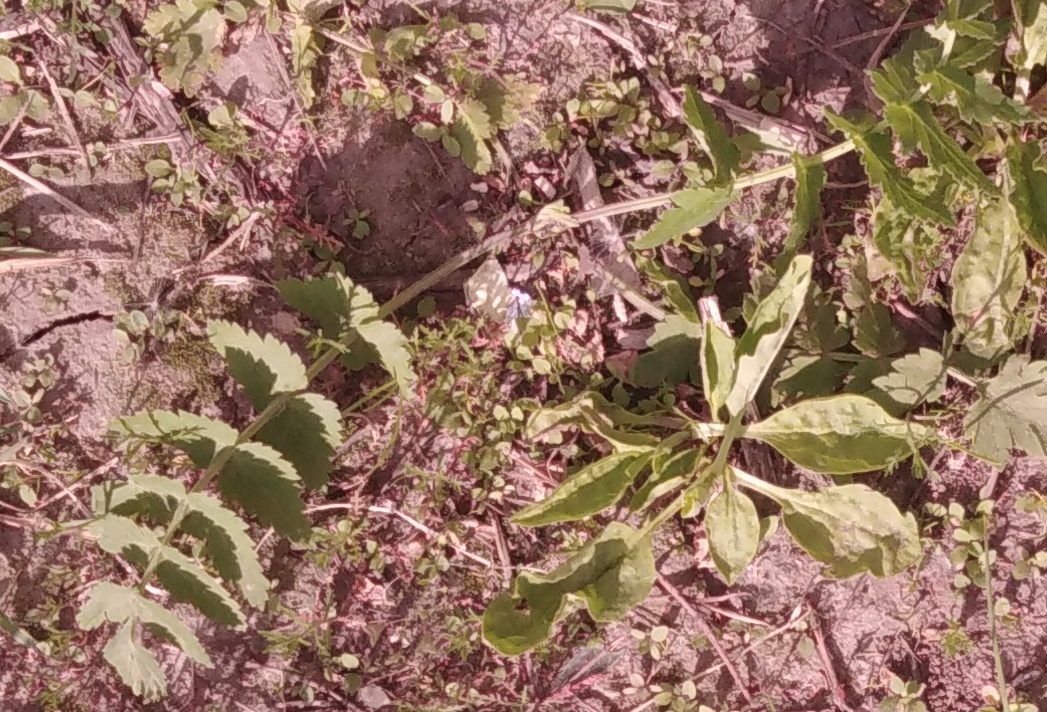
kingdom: Plantae
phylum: Tracheophyta
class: Magnoliopsida
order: Apiales
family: Apiaceae
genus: Pastinaca
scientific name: Pastinaca sativa
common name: Wild parsnip
